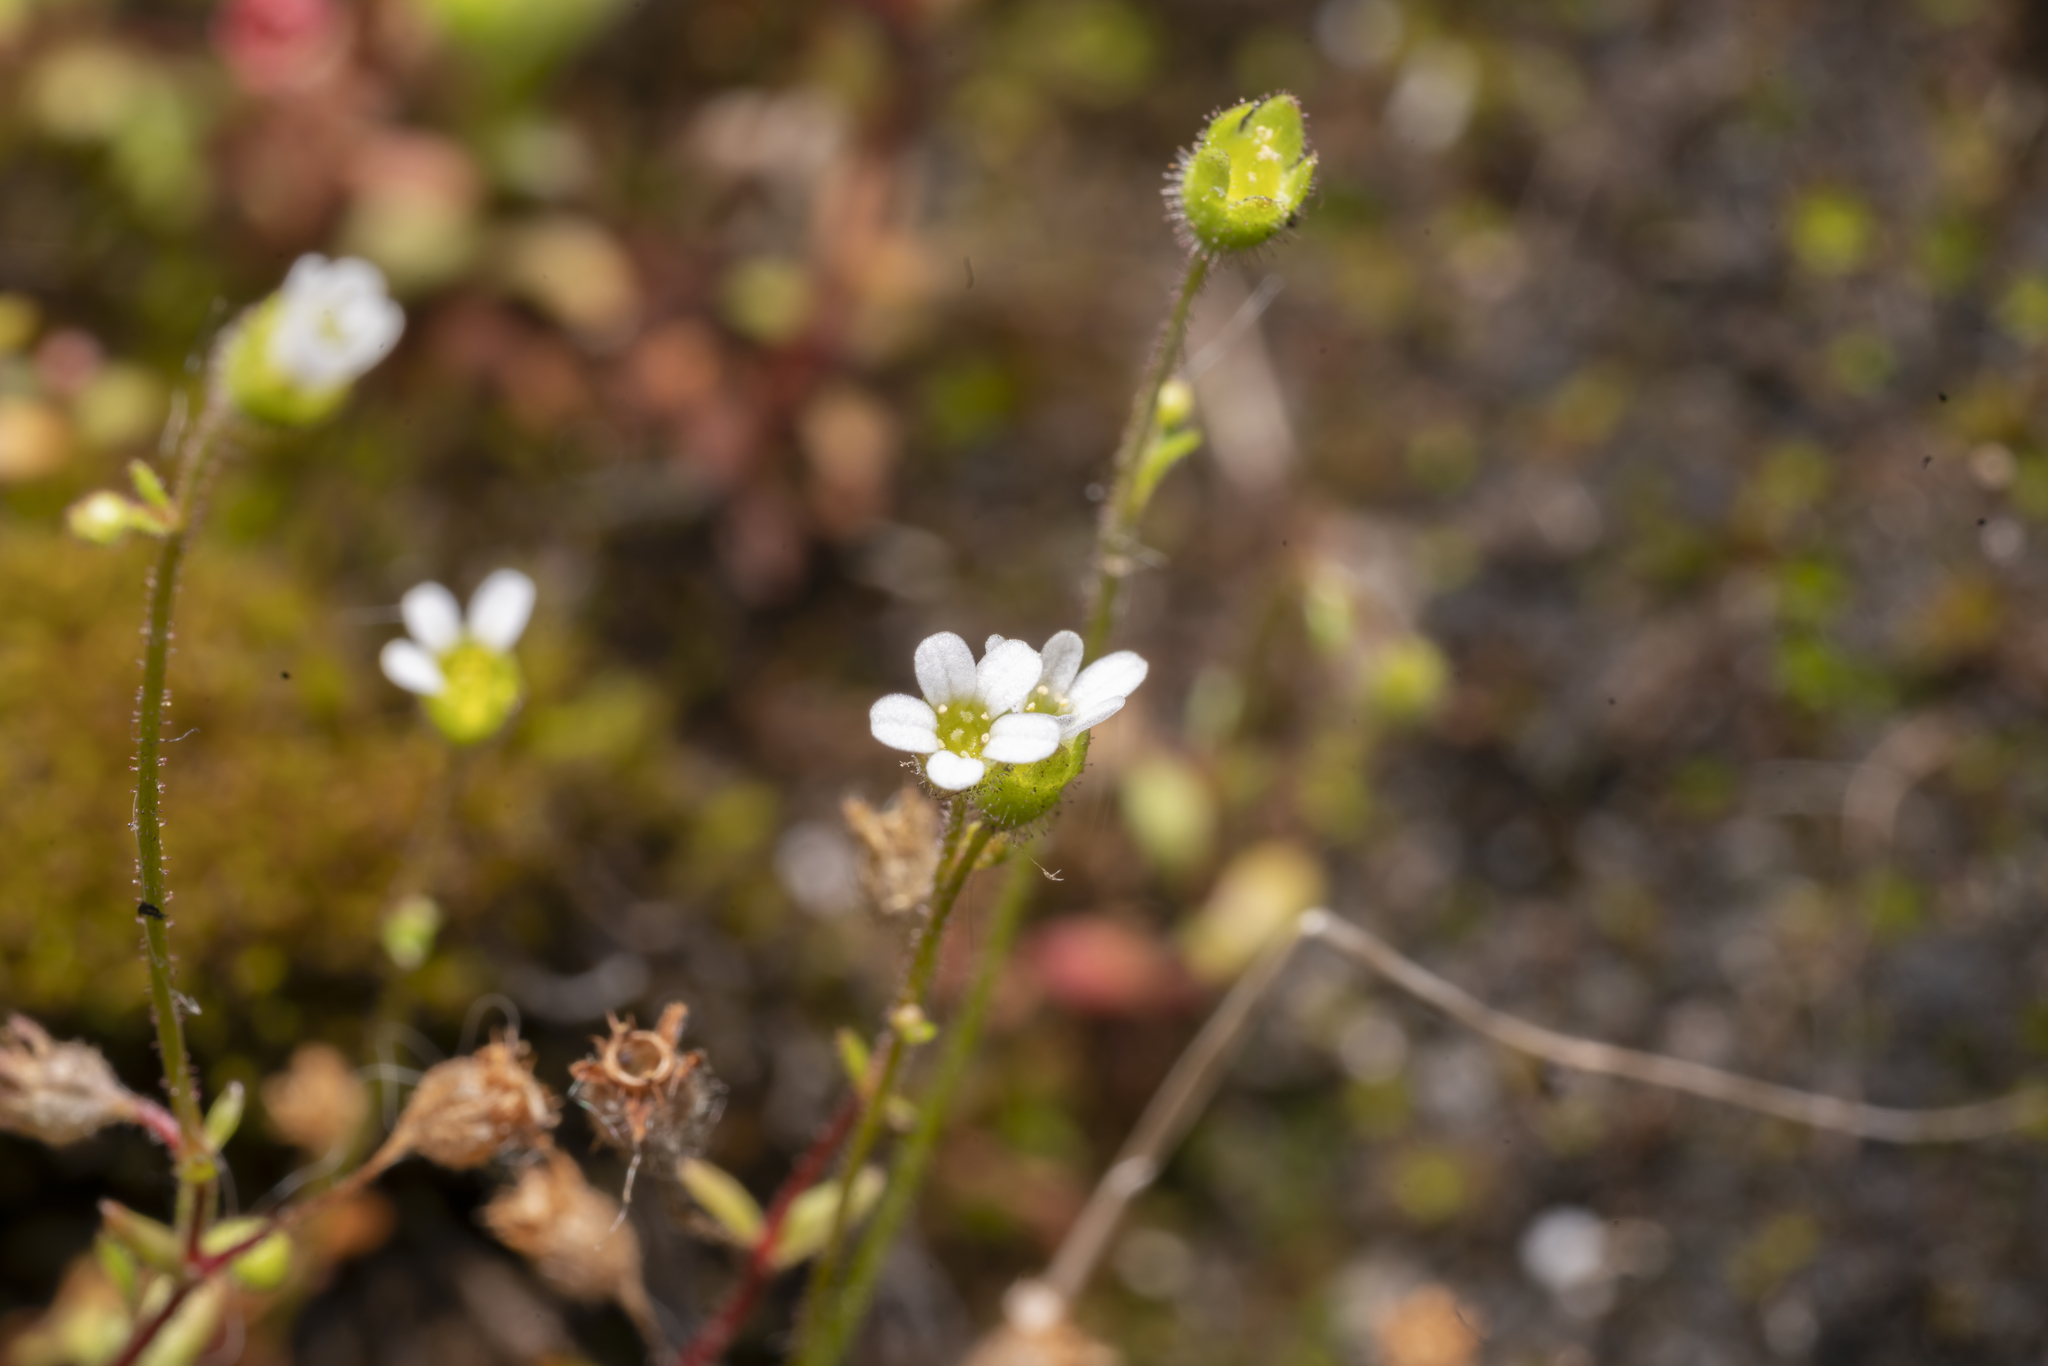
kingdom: Plantae
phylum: Tracheophyta
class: Magnoliopsida
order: Saxifragales
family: Saxifragaceae
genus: Saxifraga
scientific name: Saxifraga tridactylites
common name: Rue-leaved saxifrage
